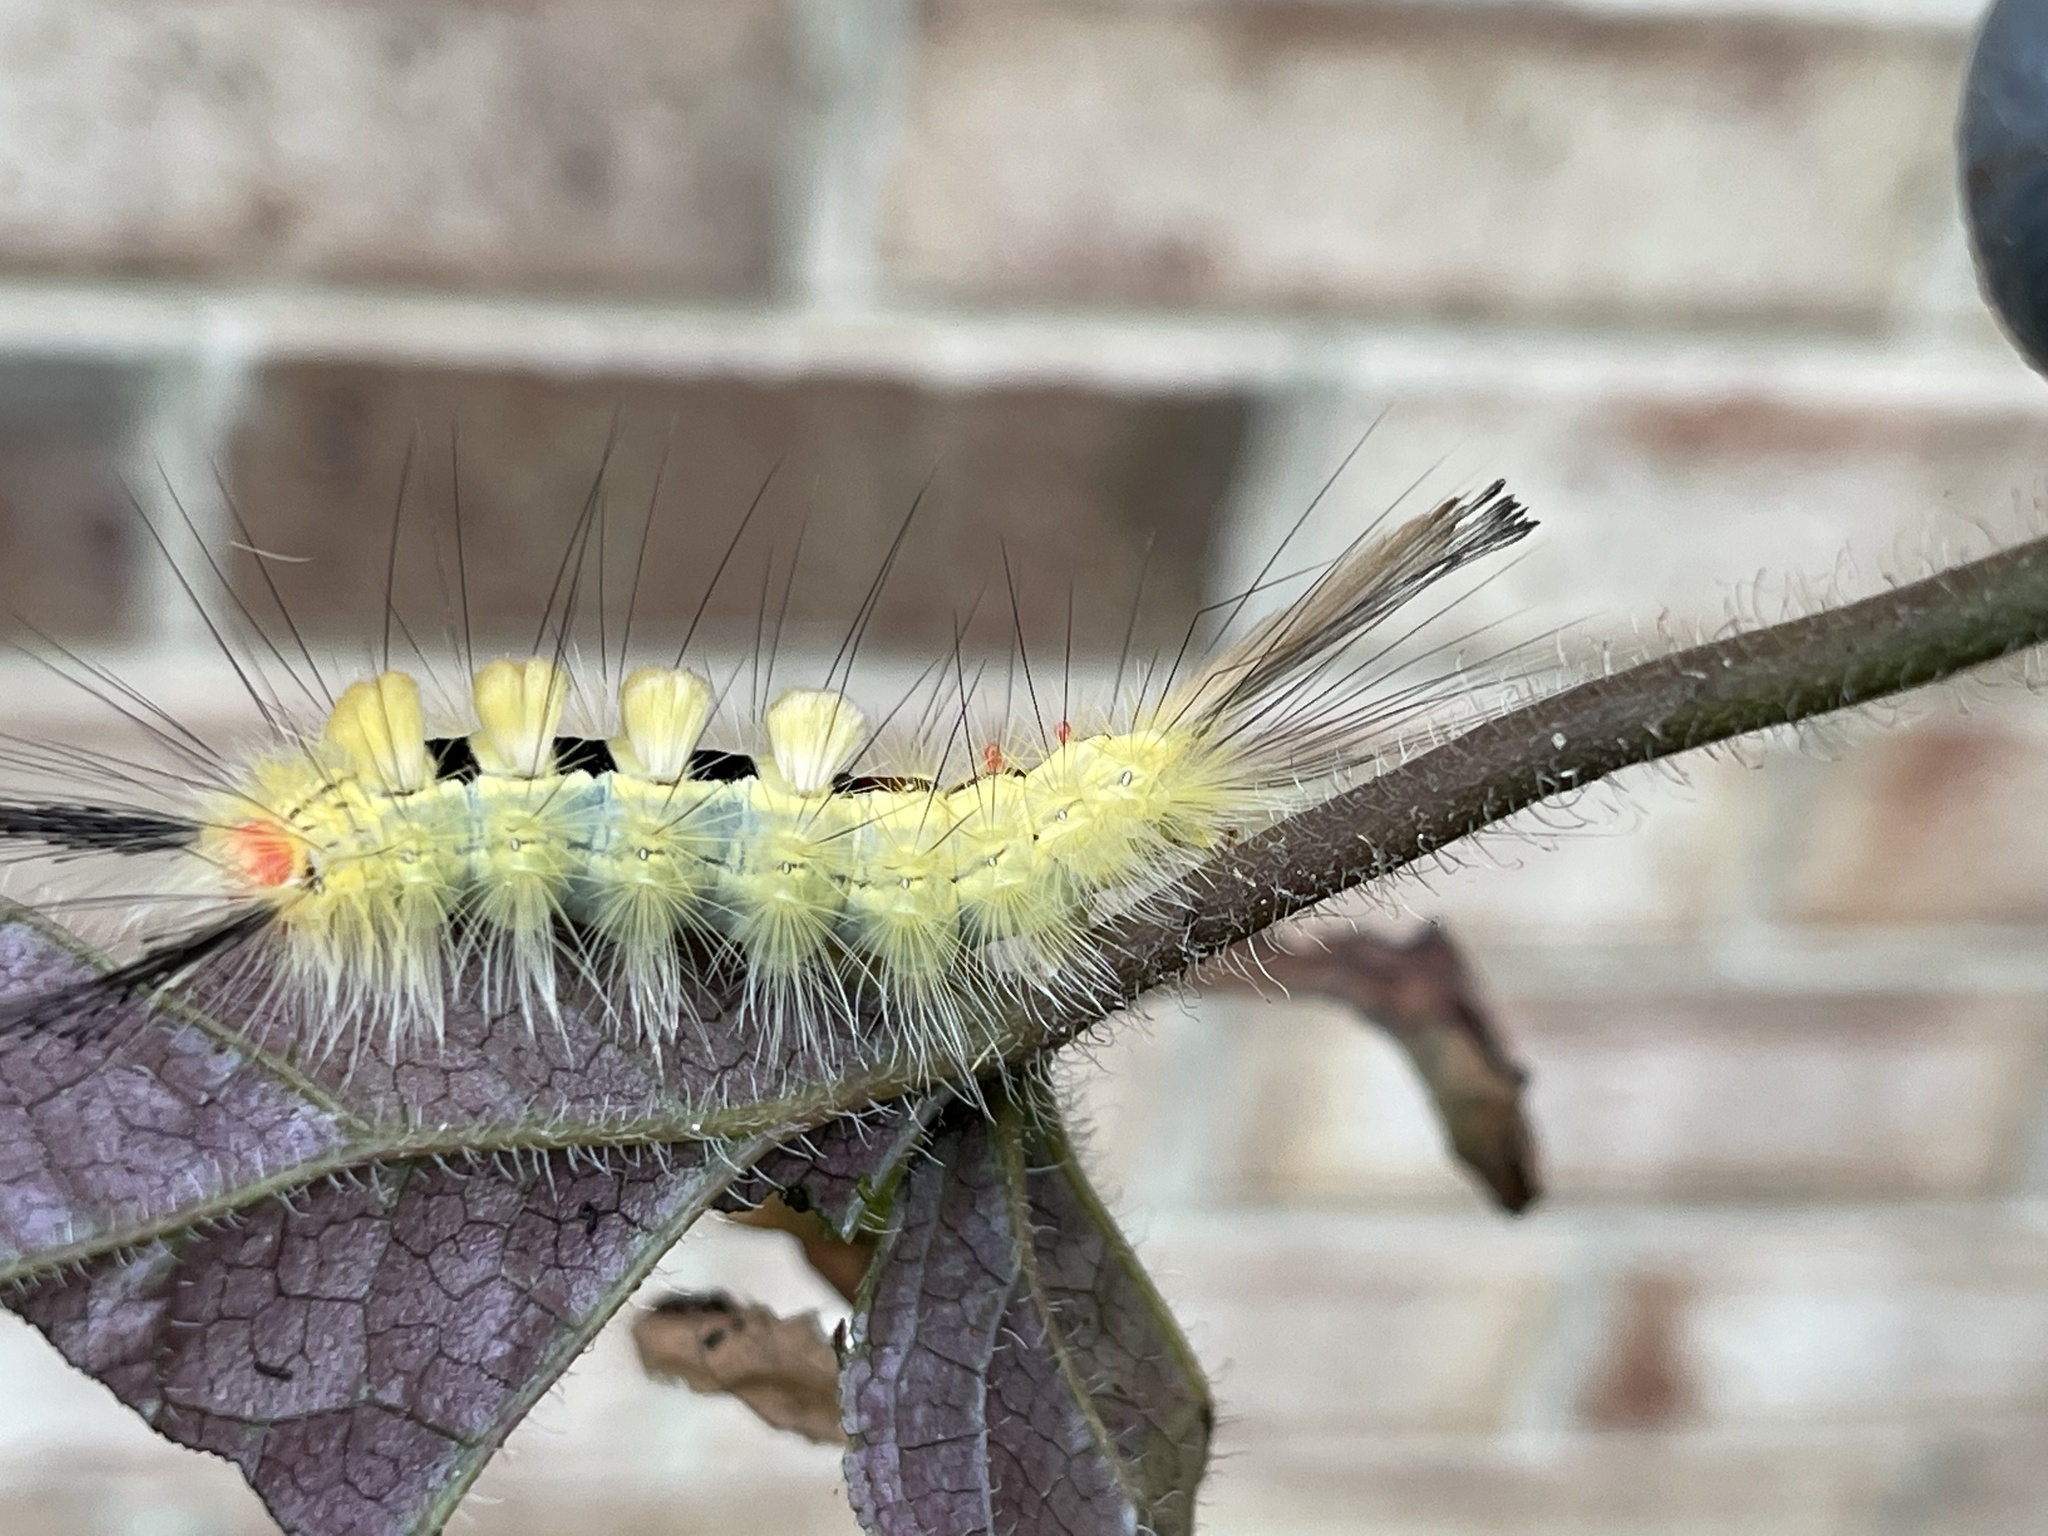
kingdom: Animalia
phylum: Arthropoda
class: Insecta
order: Lepidoptera
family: Erebidae
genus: Orgyia
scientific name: Orgyia leucostigma
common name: White-marked tussock moth
